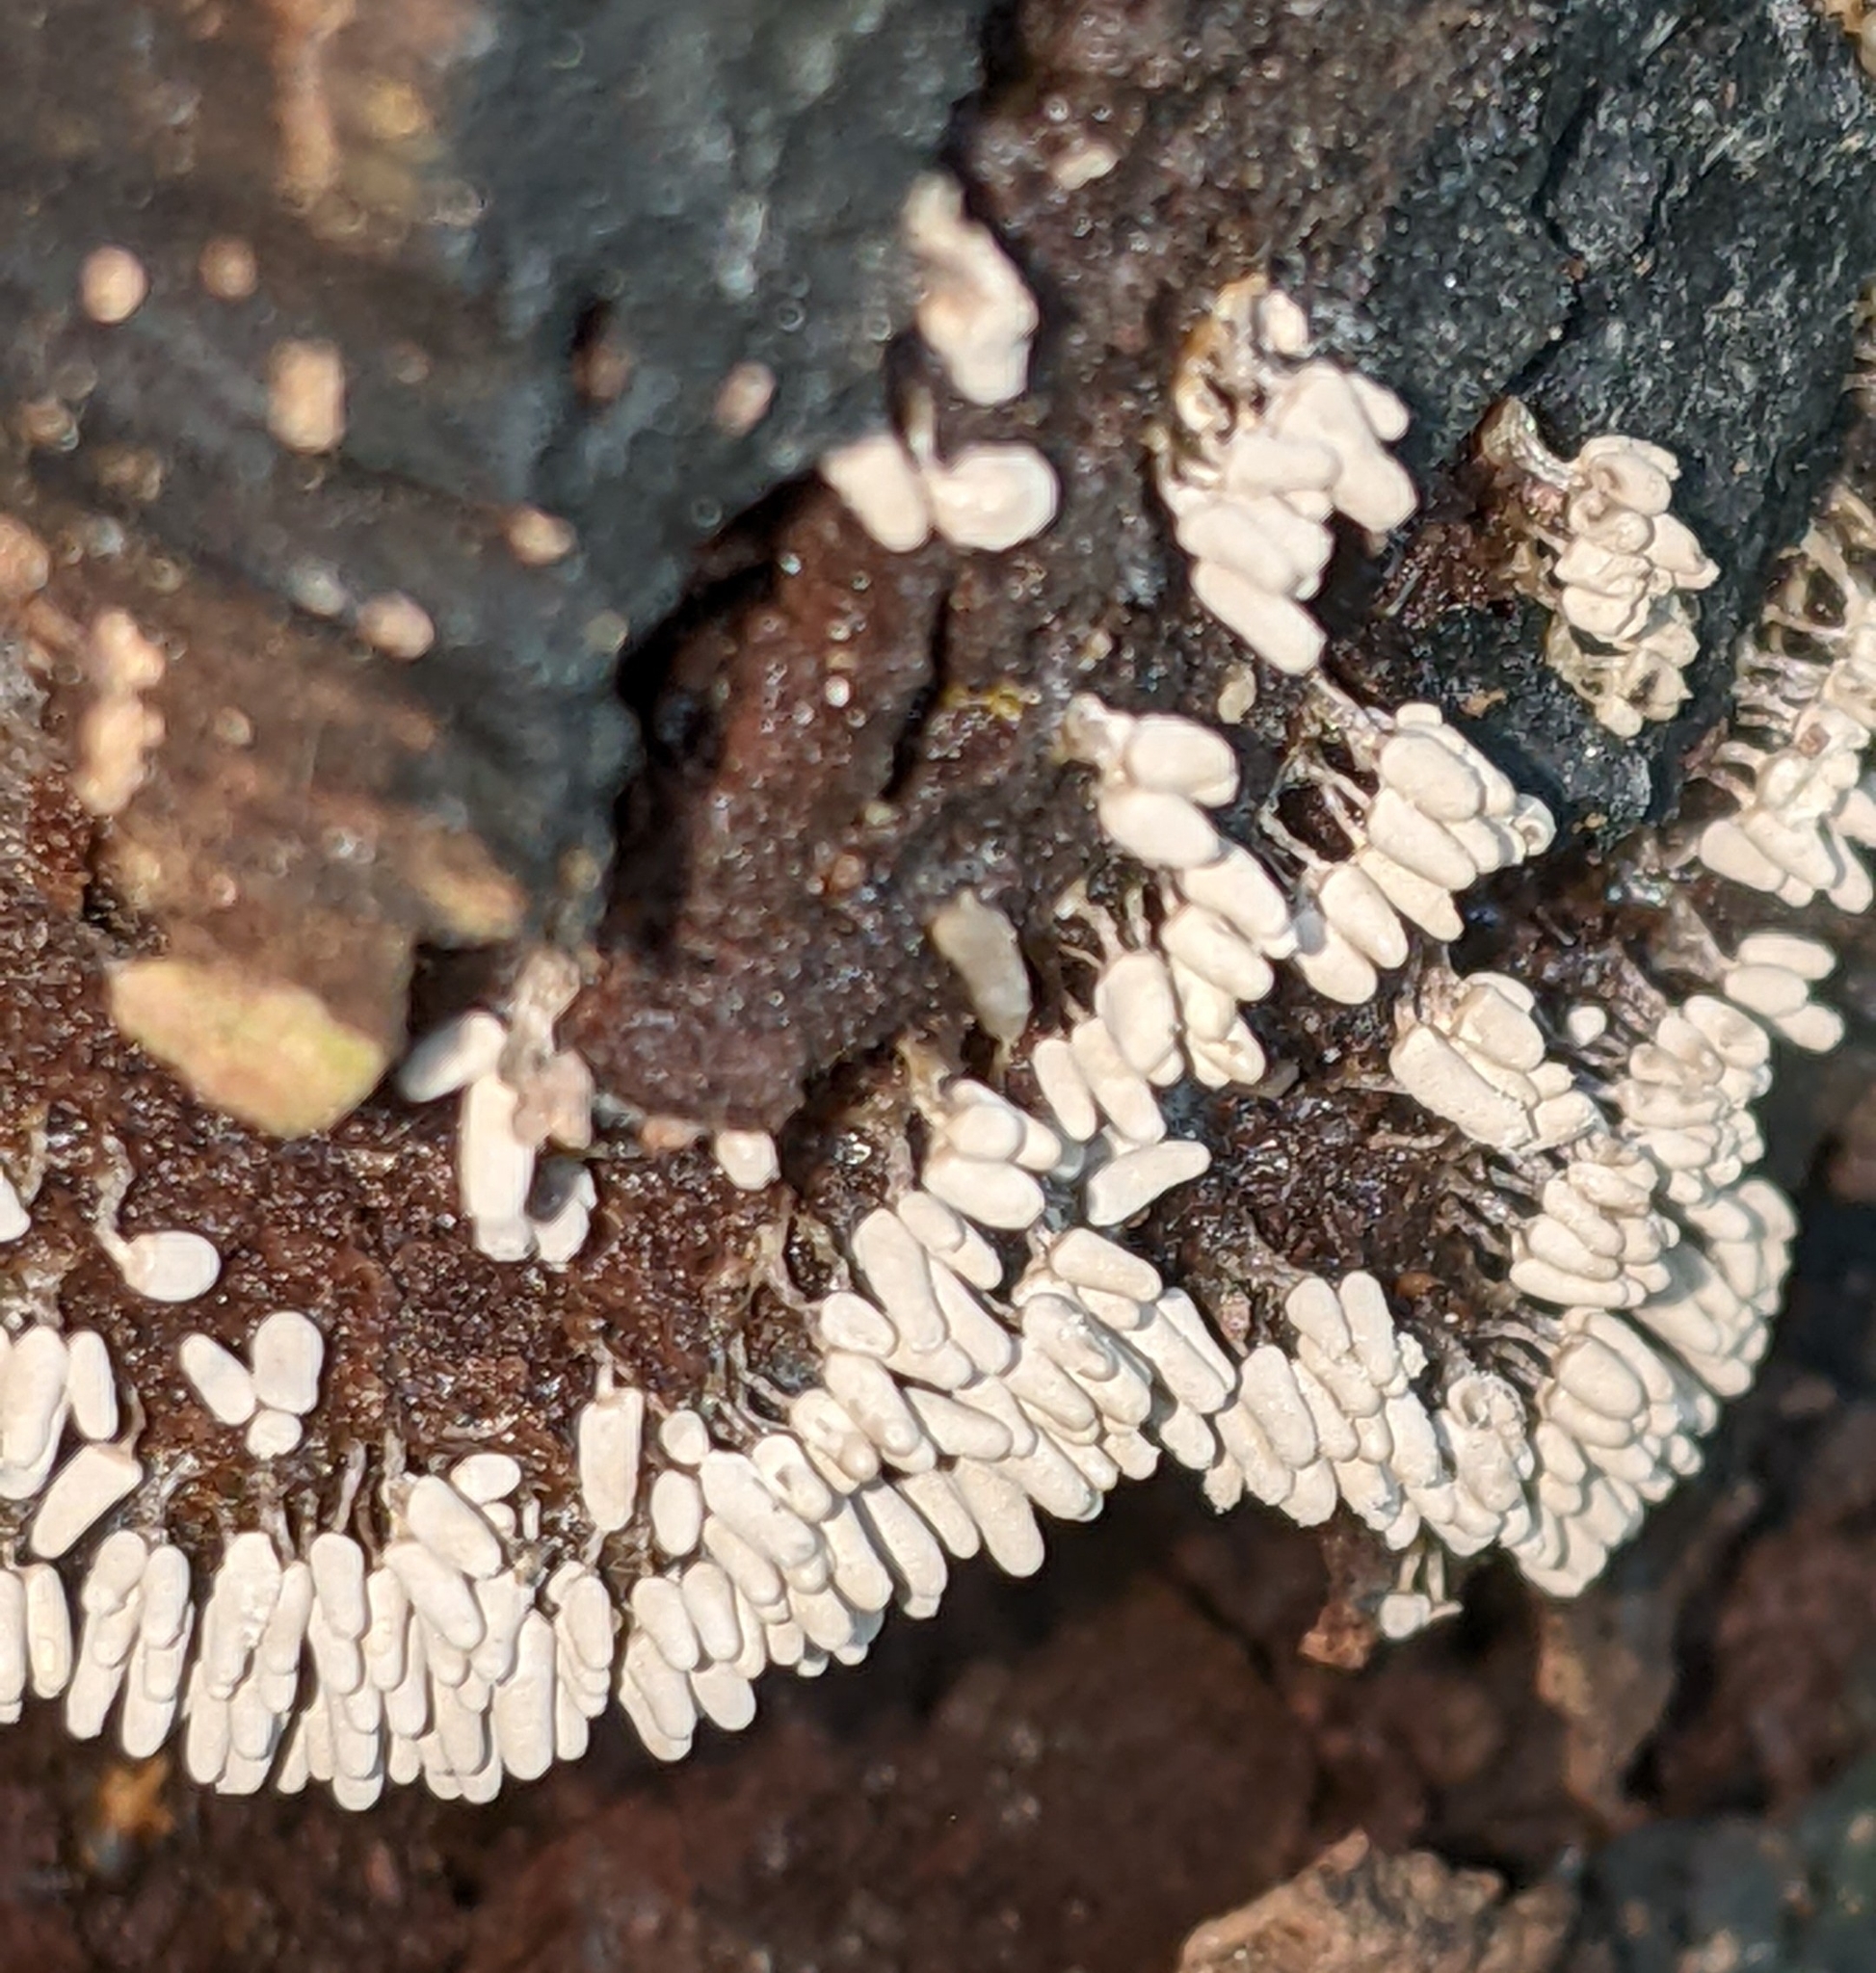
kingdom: Protozoa
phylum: Mycetozoa
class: Myxomycetes
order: Trichiales
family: Arcyriaceae
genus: Arcyria
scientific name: Arcyria cinerea
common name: White carnival candy slime mold
